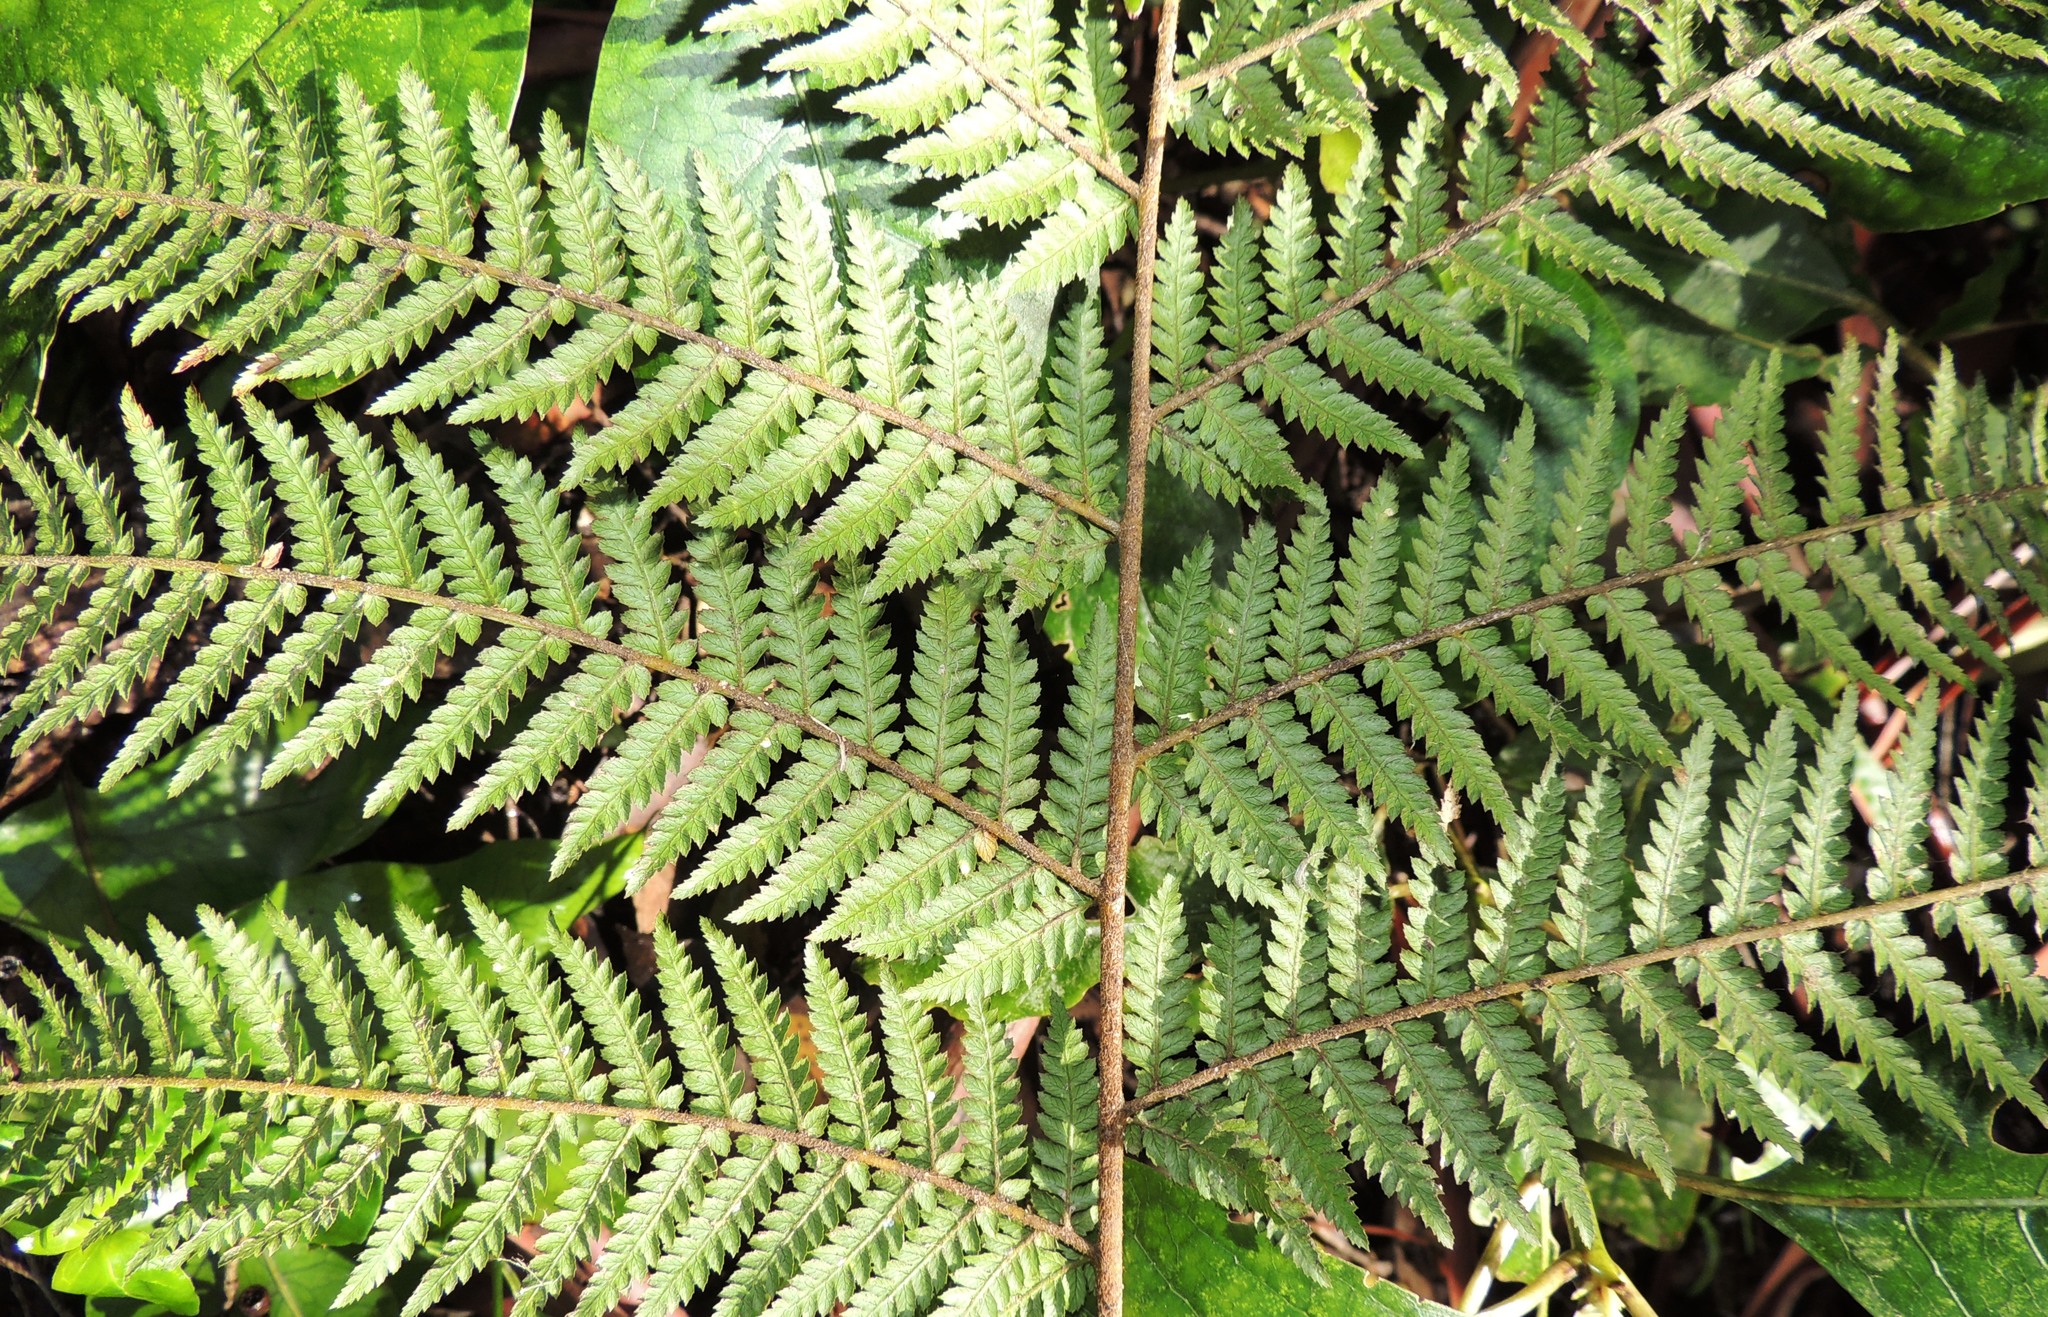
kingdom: Plantae
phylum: Tracheophyta
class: Polypodiopsida
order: Cyatheales
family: Dicksoniaceae
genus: Dicksonia
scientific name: Dicksonia fibrosa
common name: Golden tree fern
